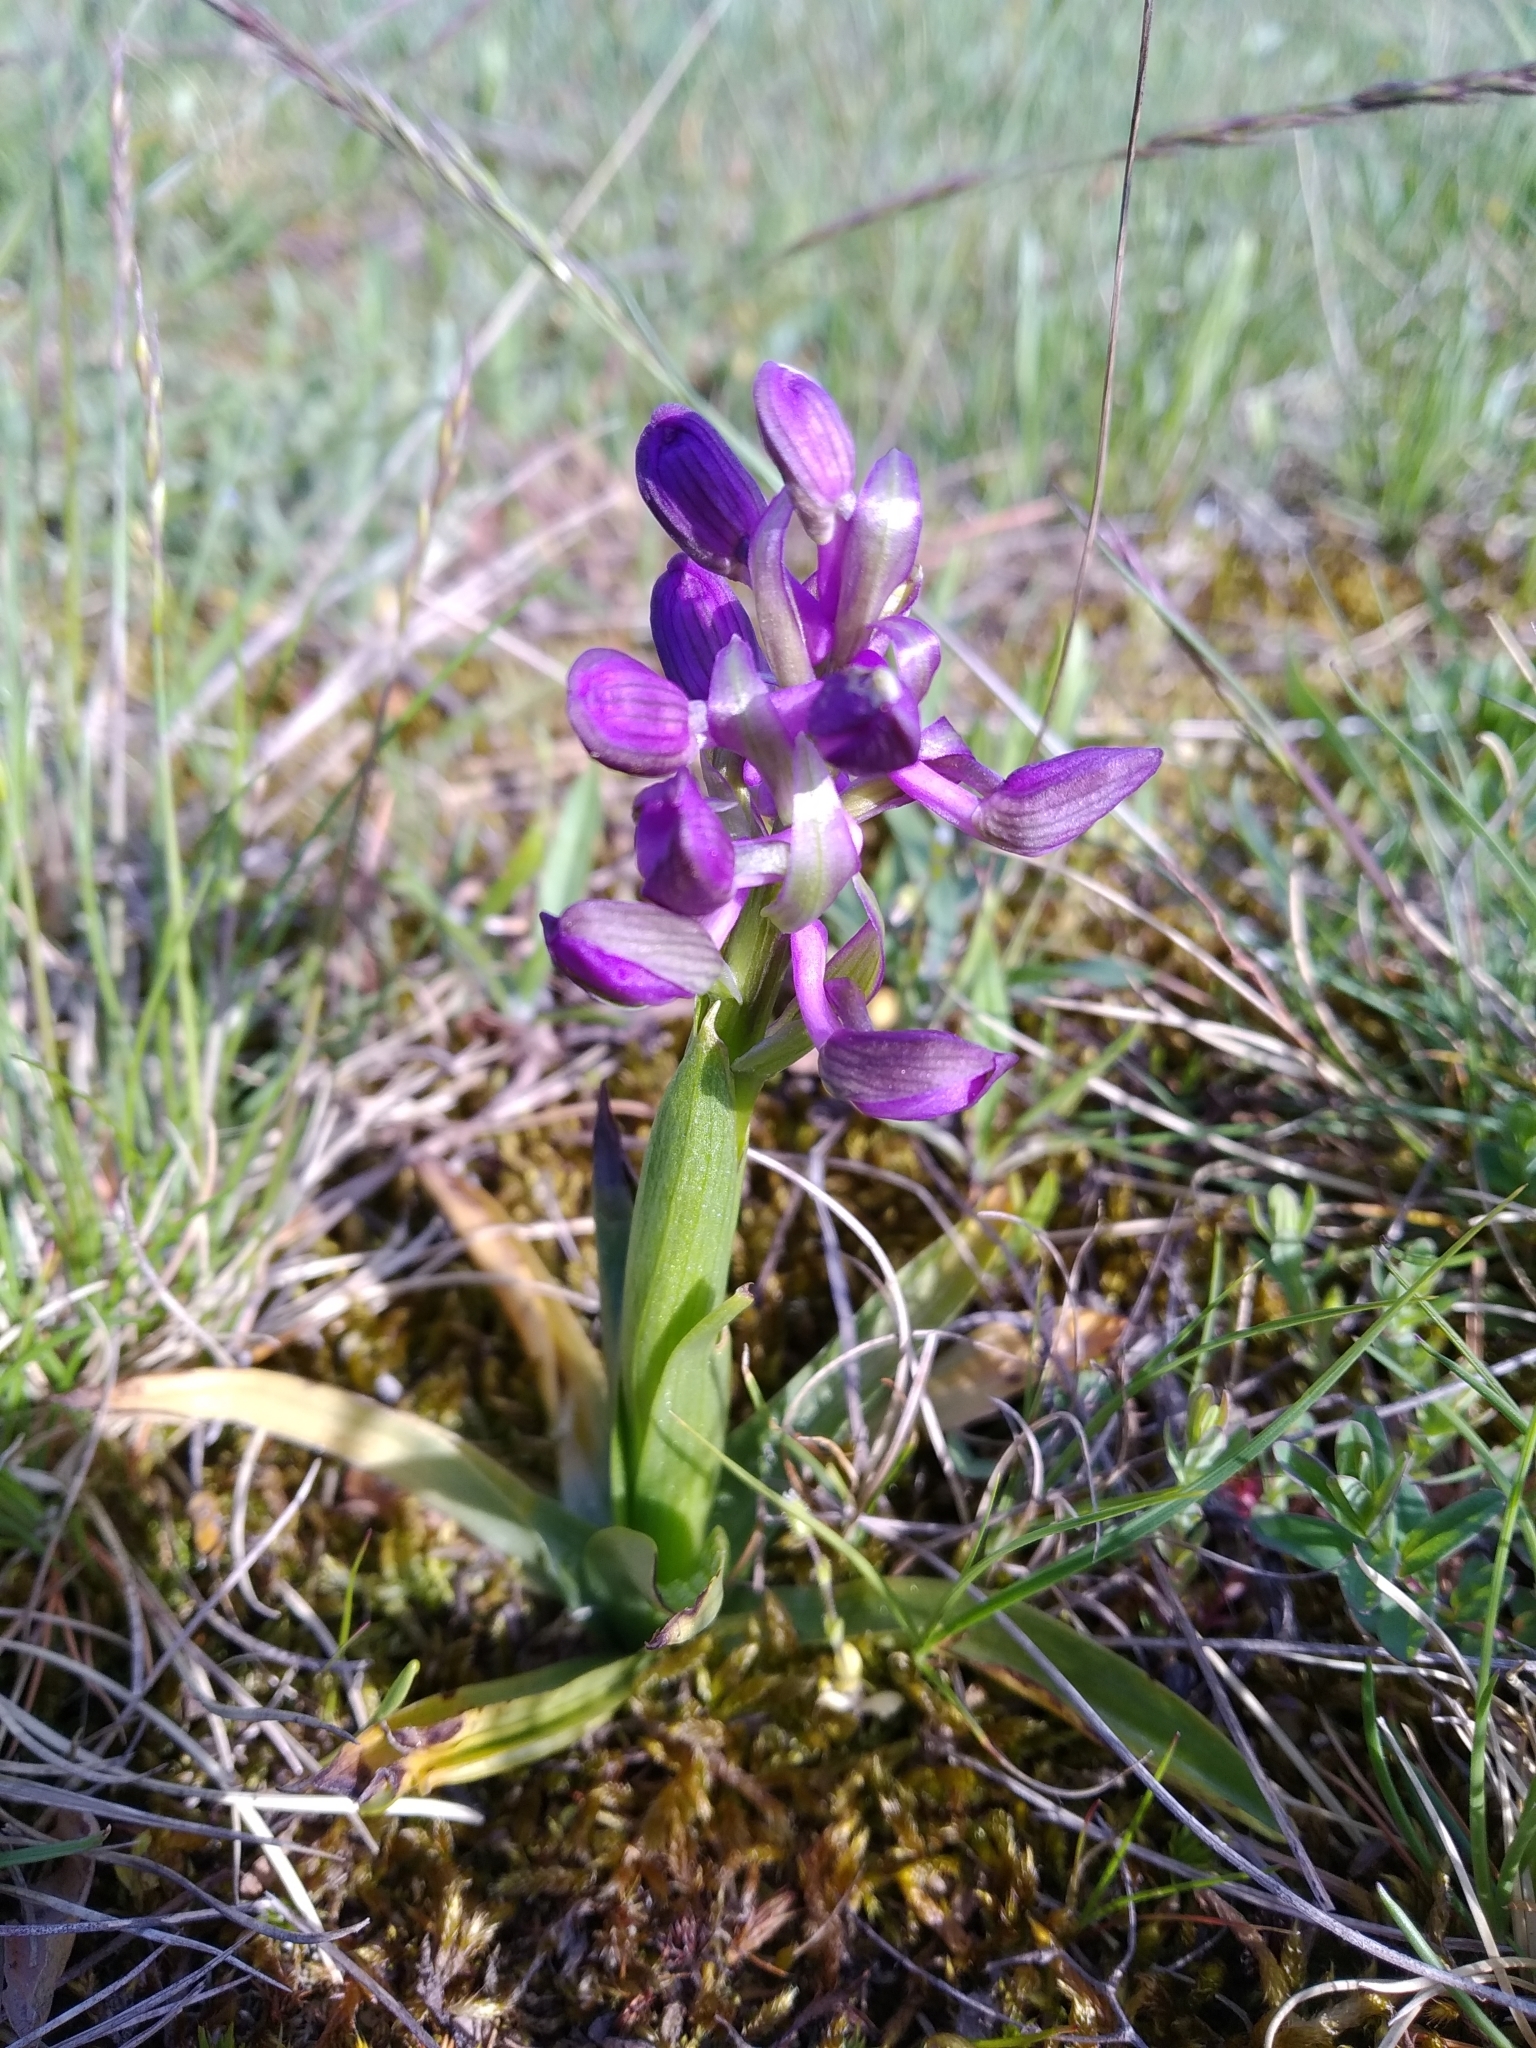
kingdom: Plantae
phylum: Tracheophyta
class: Liliopsida
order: Asparagales
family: Orchidaceae
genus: Anacamptis
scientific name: Anacamptis morio
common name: Green-winged orchid
